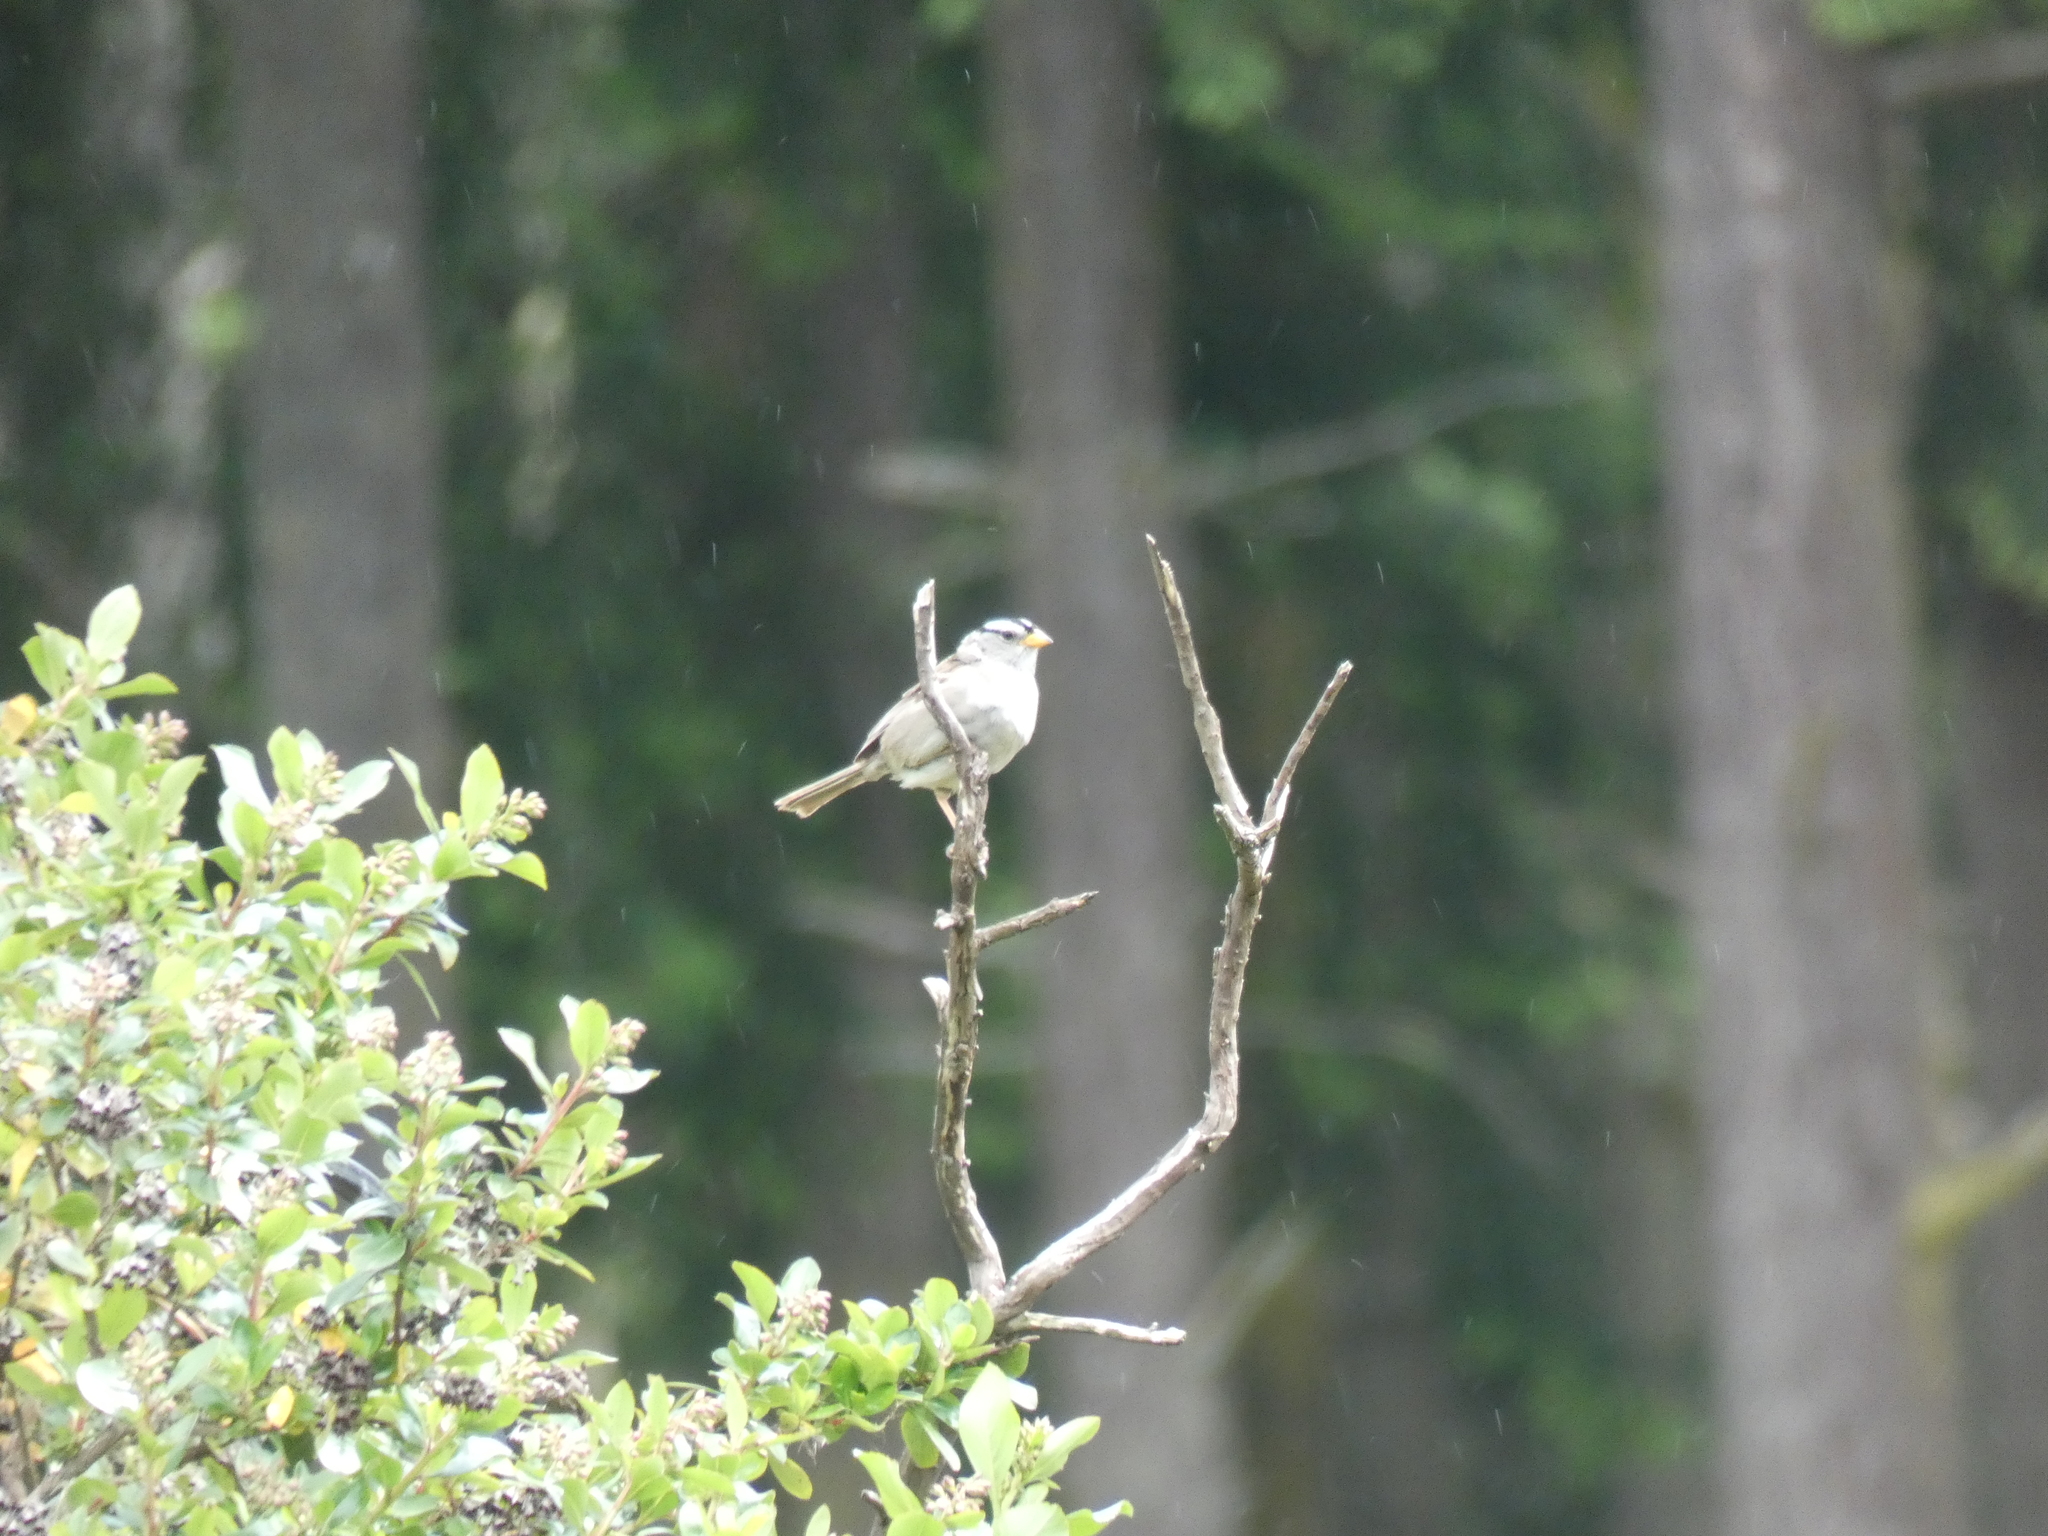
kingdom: Animalia
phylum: Chordata
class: Aves
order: Passeriformes
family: Passerellidae
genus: Zonotrichia
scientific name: Zonotrichia leucophrys
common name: White-crowned sparrow
